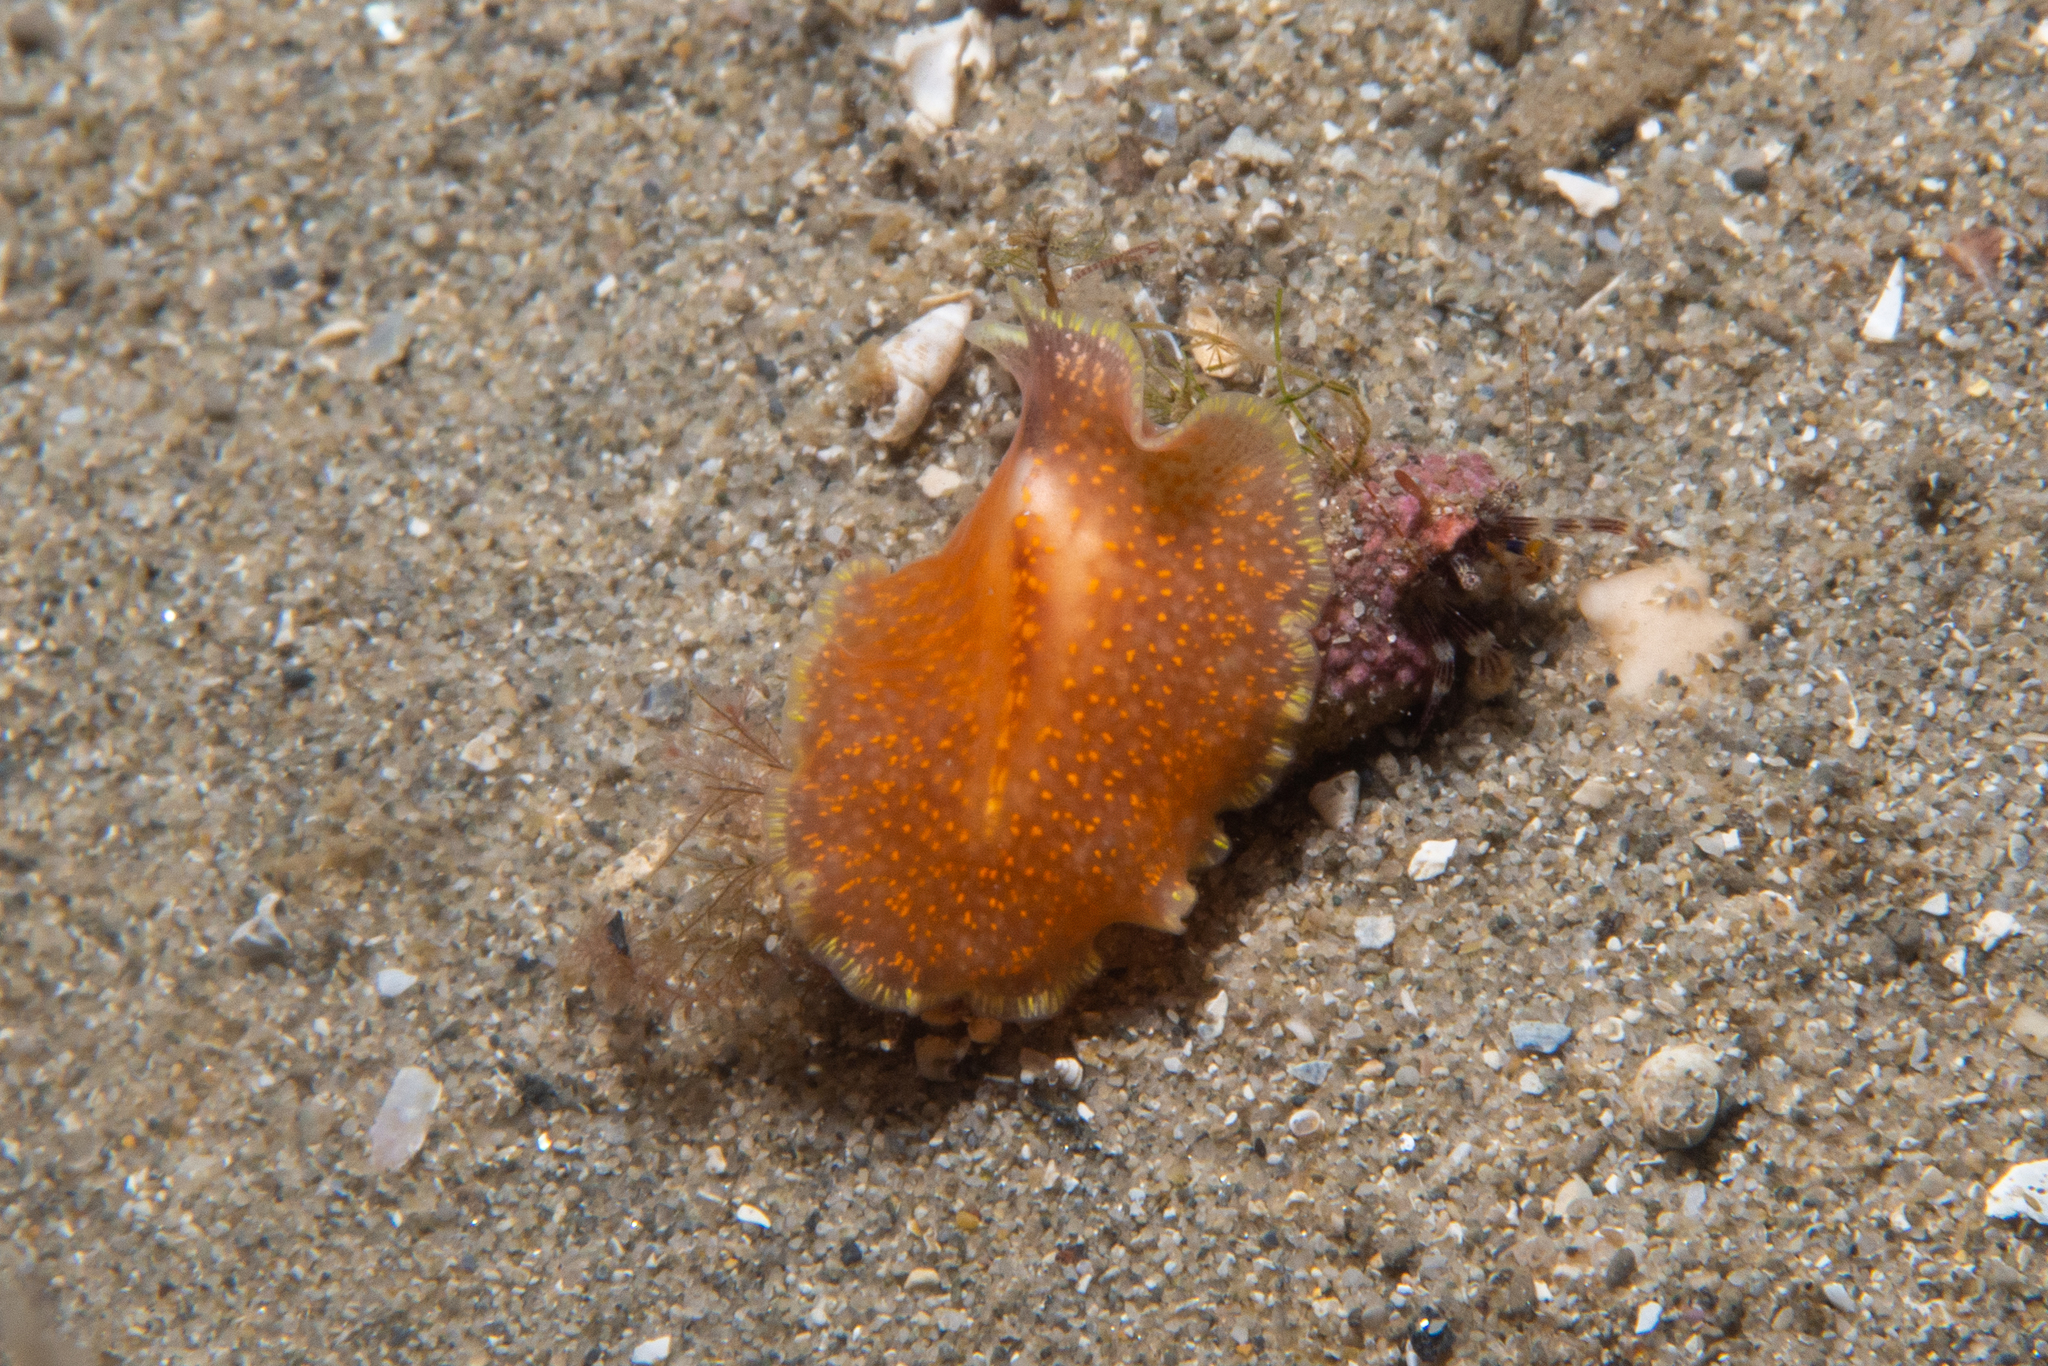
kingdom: Animalia
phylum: Platyhelminthes
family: Stylostomidae
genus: Cycloporus
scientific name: Cycloporus variegatus
